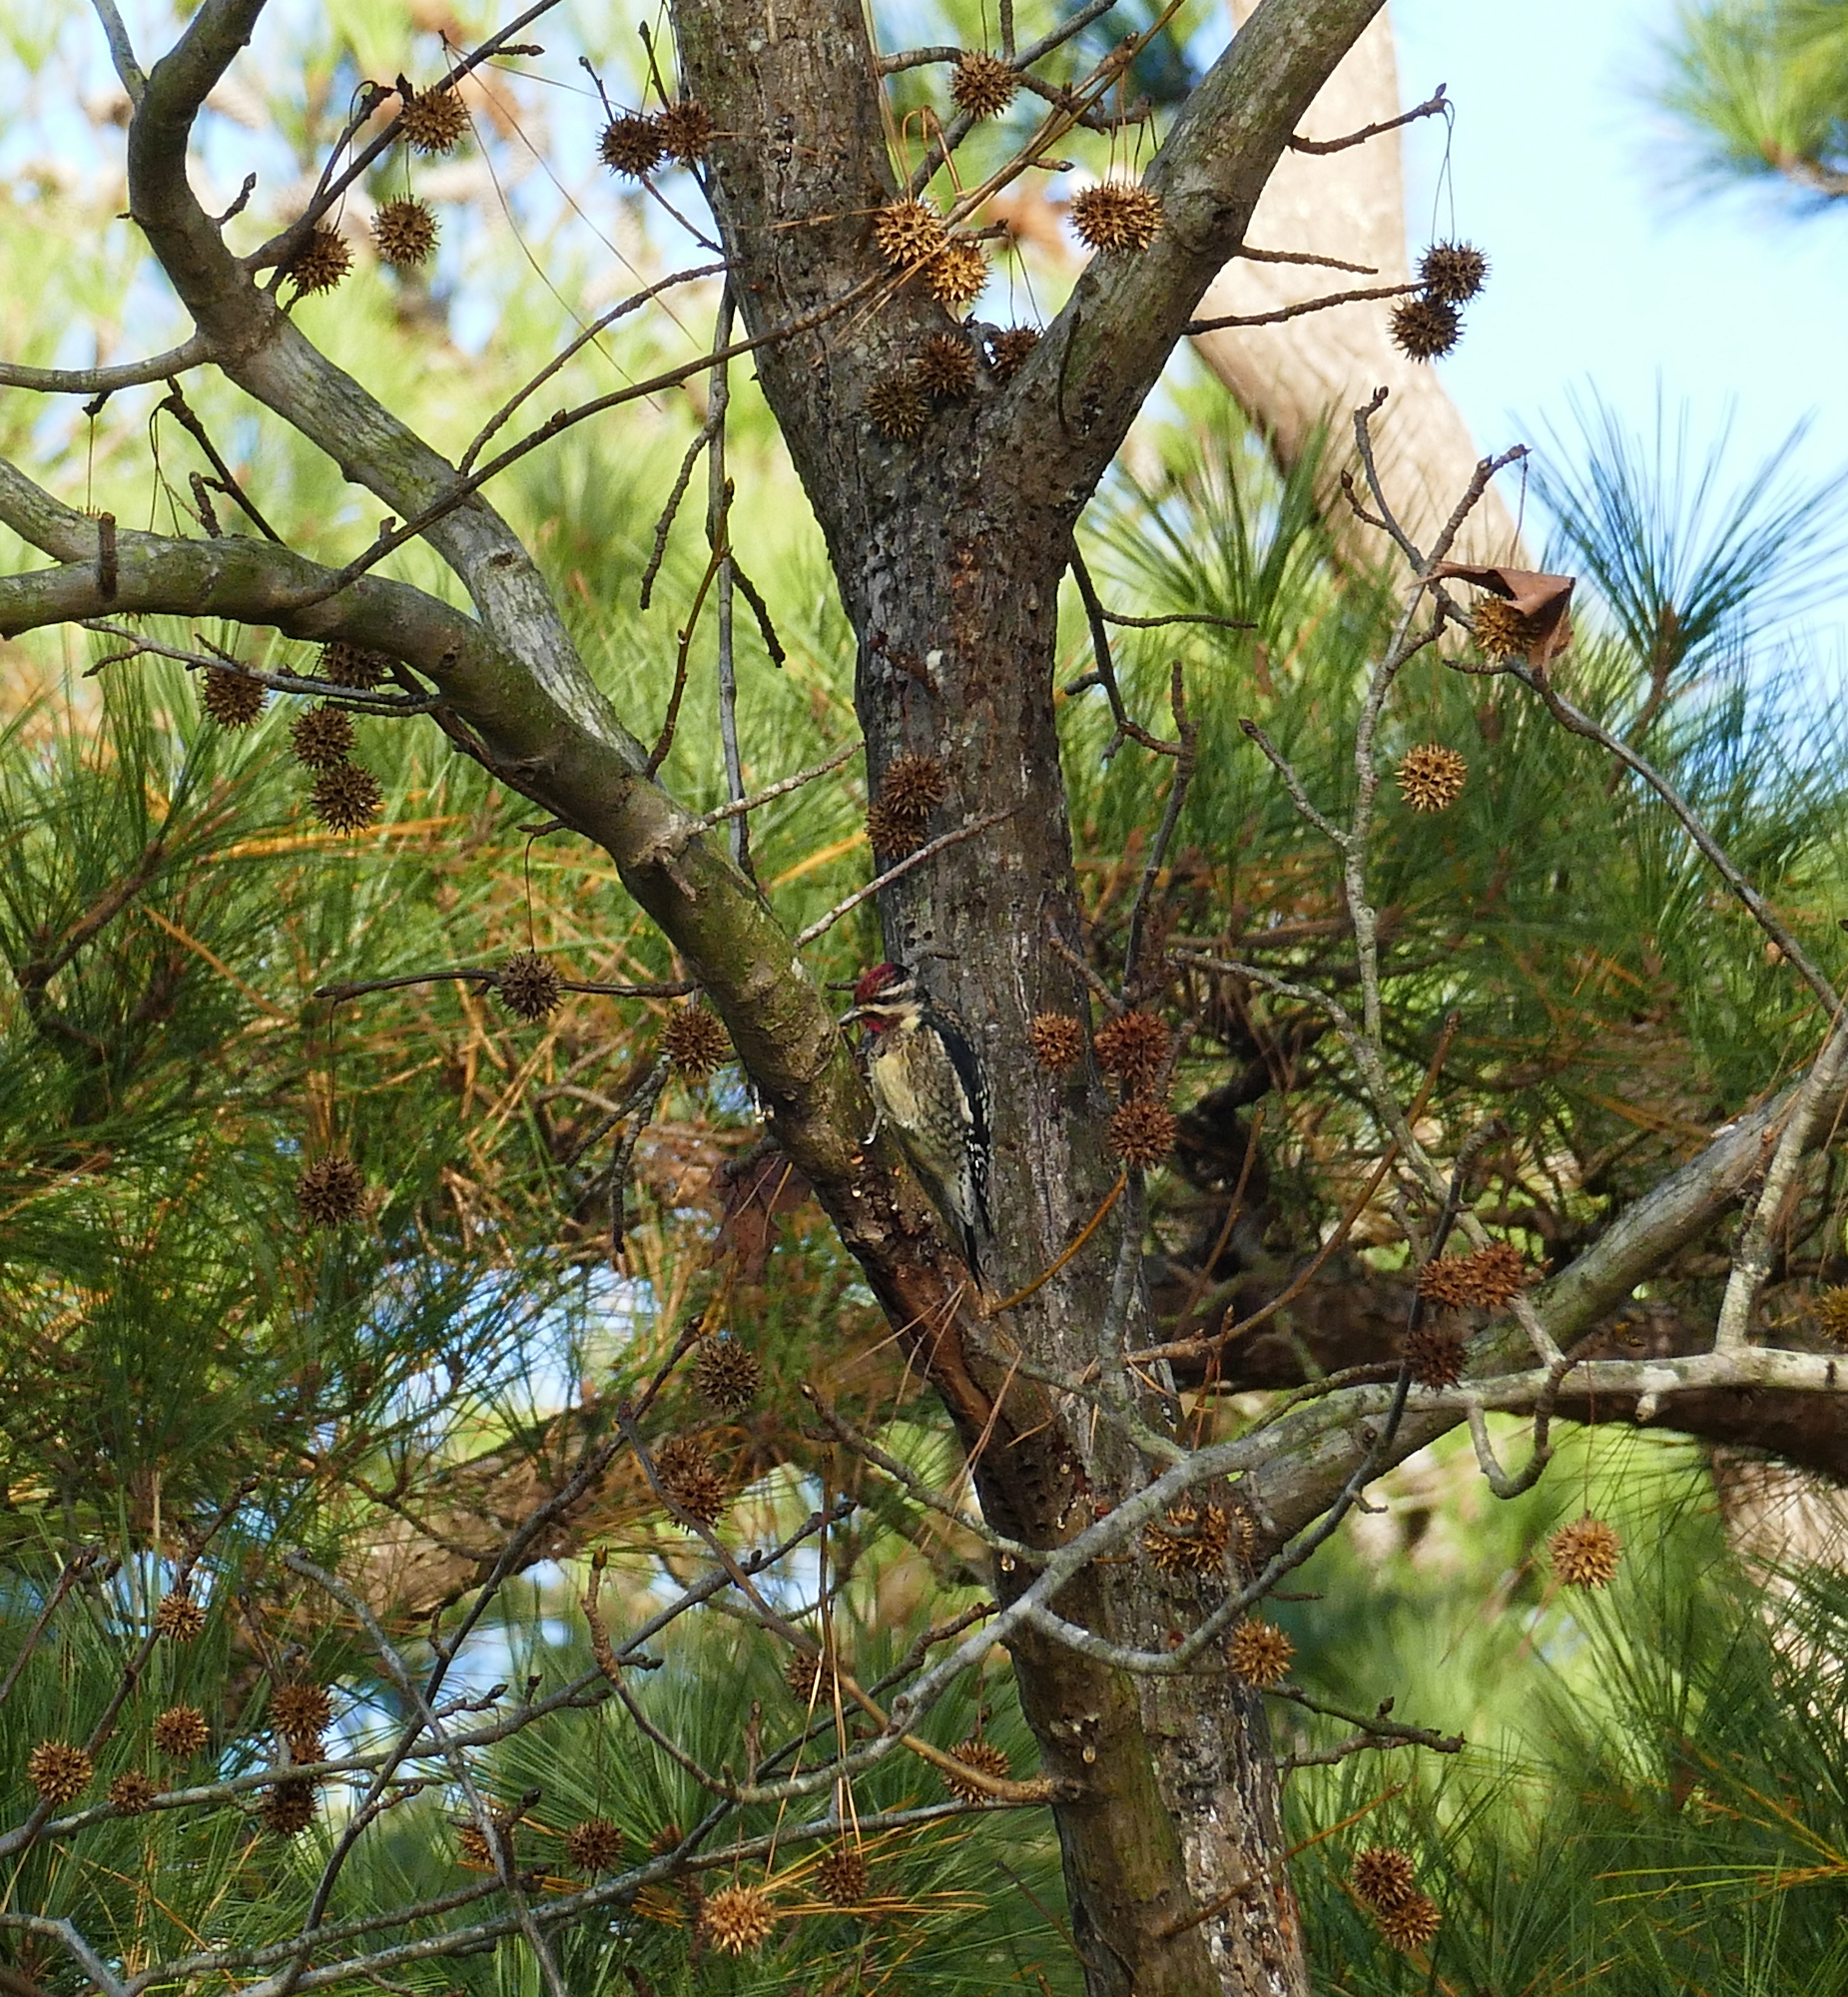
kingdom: Plantae
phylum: Tracheophyta
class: Magnoliopsida
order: Saxifragales
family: Altingiaceae
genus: Liquidambar
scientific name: Liquidambar styraciflua
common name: Sweet gum
